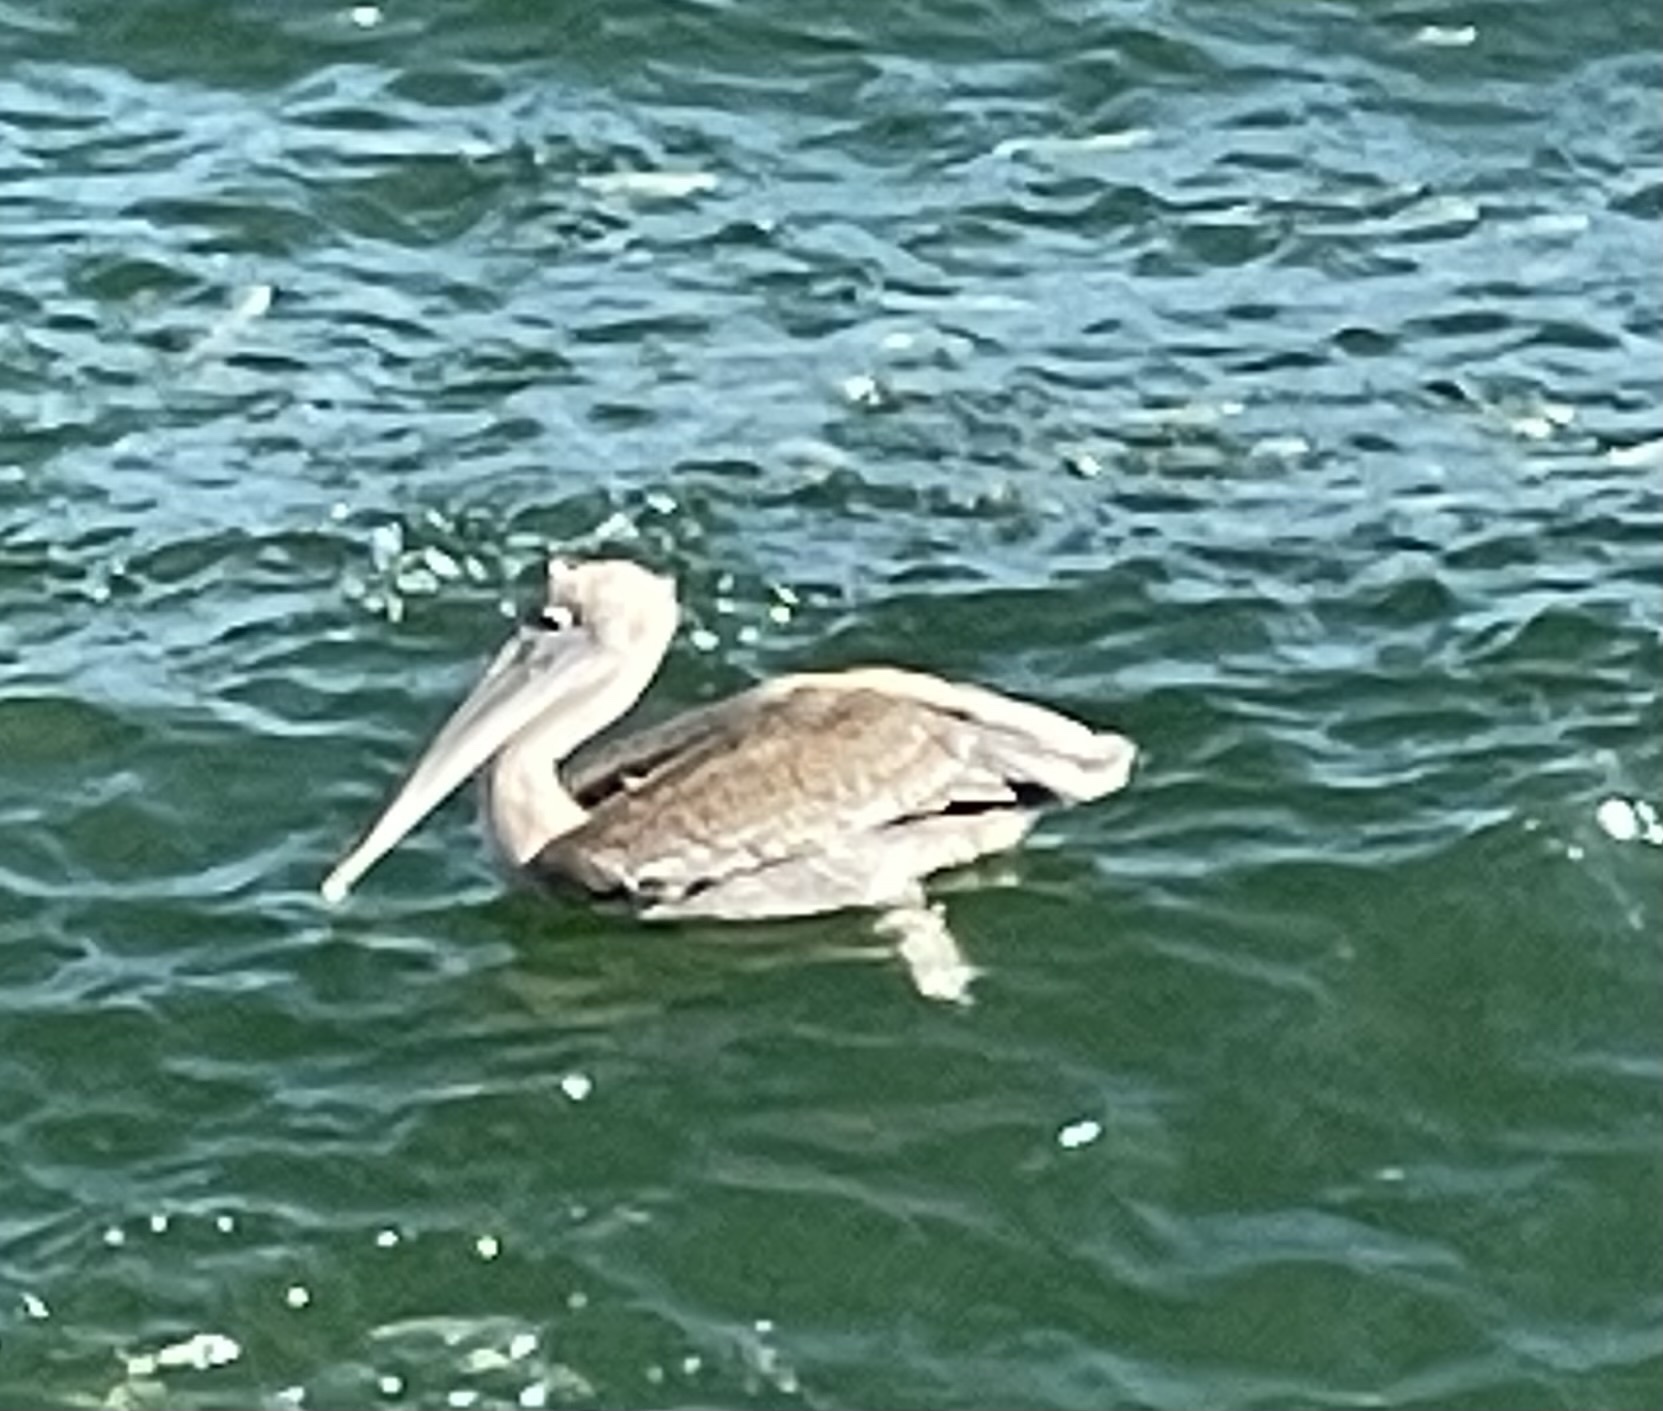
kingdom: Animalia
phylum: Chordata
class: Aves
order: Pelecaniformes
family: Pelecanidae
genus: Pelecanus
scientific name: Pelecanus occidentalis
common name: Brown pelican
